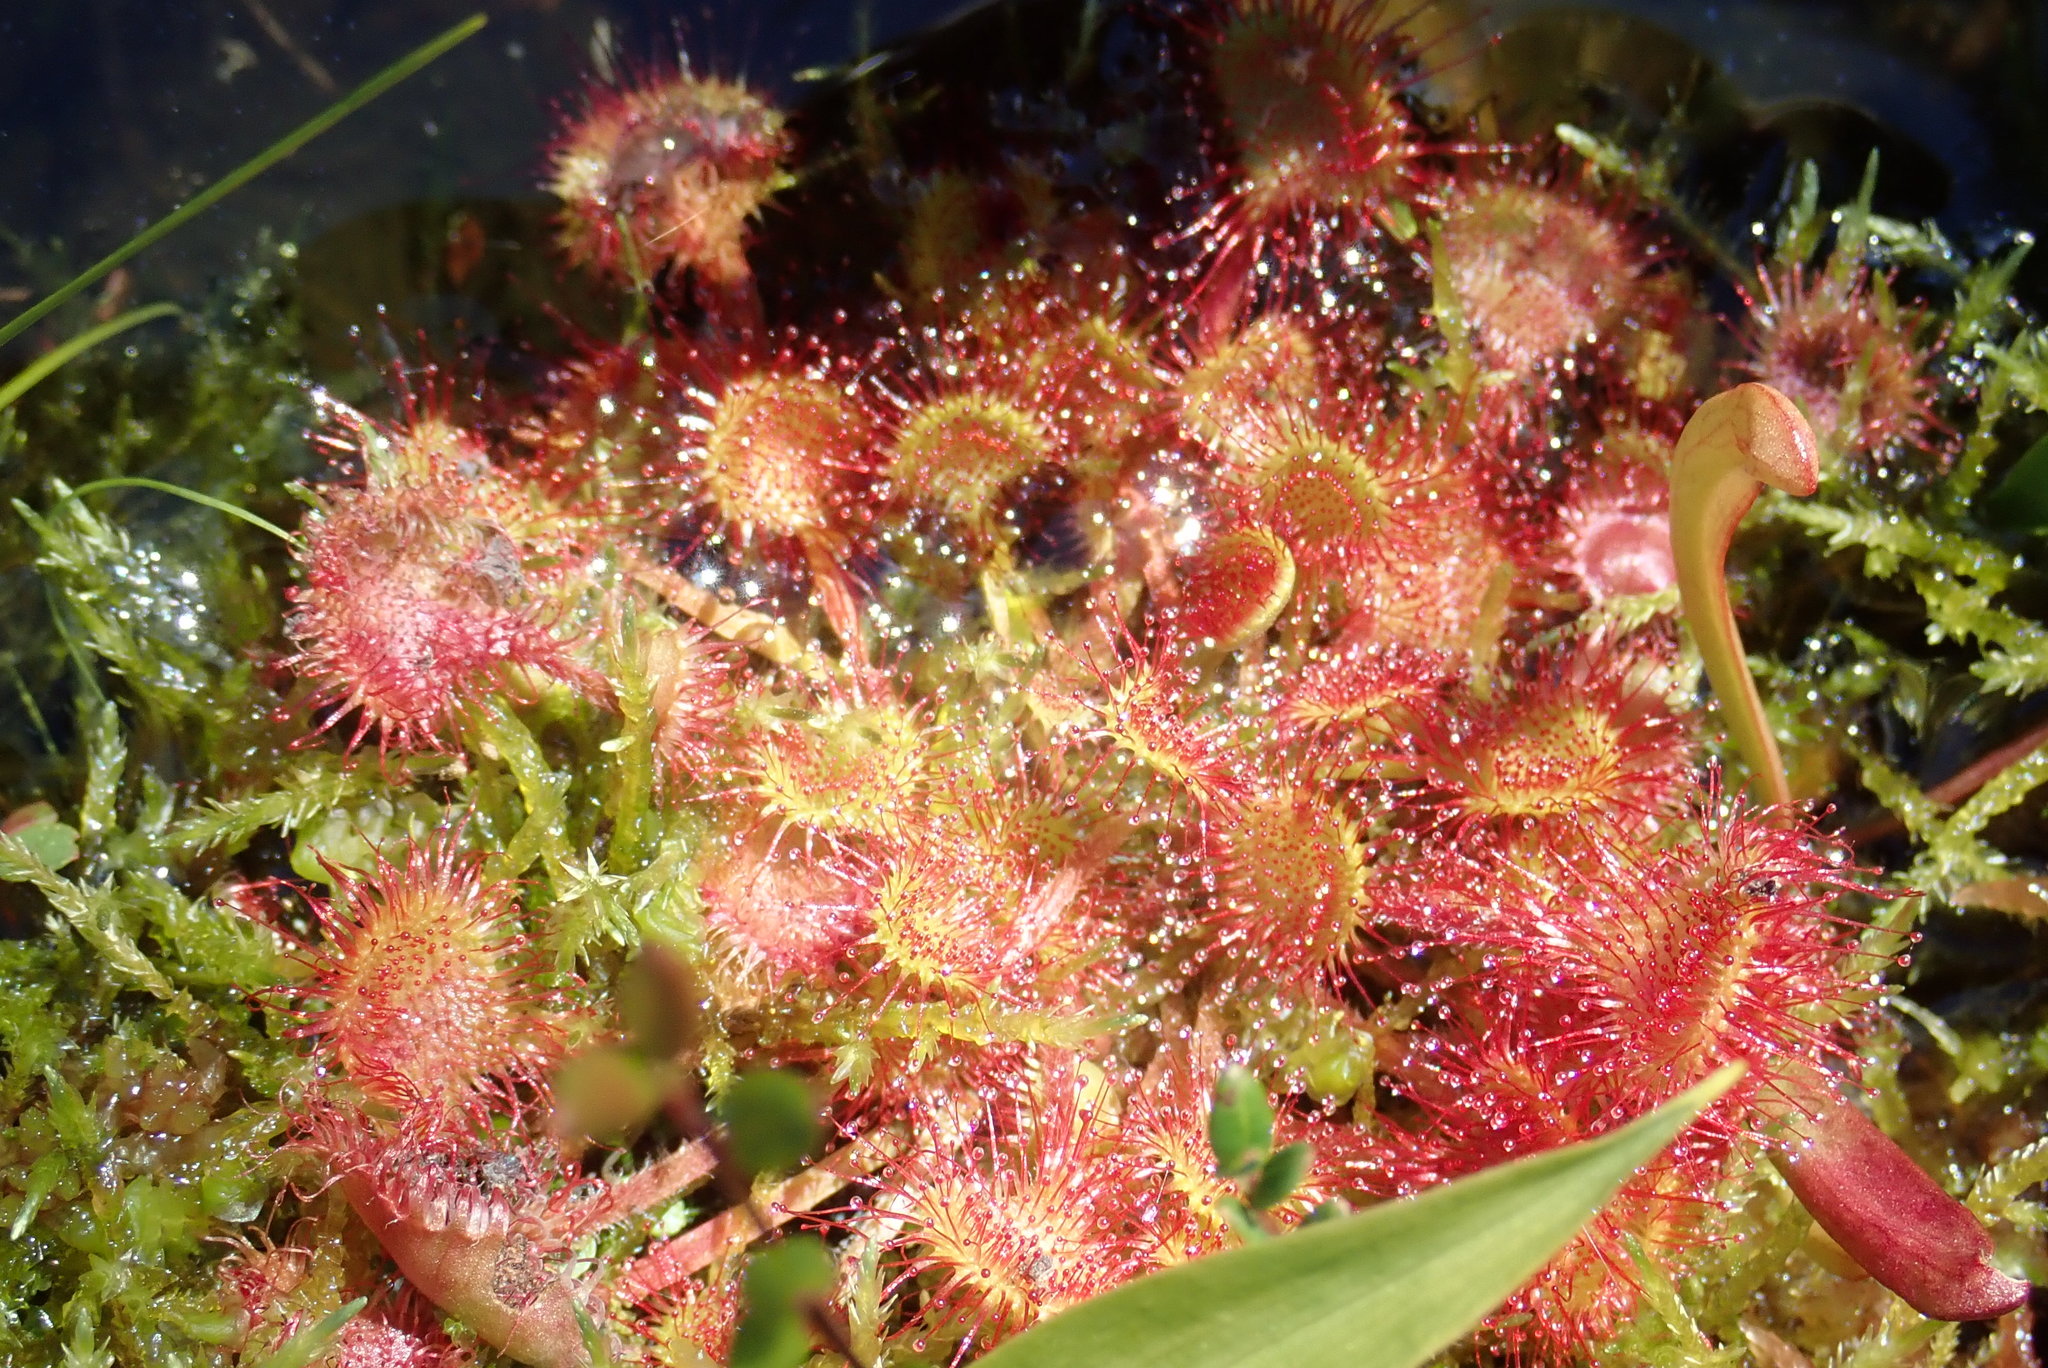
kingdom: Plantae
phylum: Tracheophyta
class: Magnoliopsida
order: Caryophyllales
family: Droseraceae
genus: Drosera
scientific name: Drosera rotundifolia
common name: Round-leaved sundew
